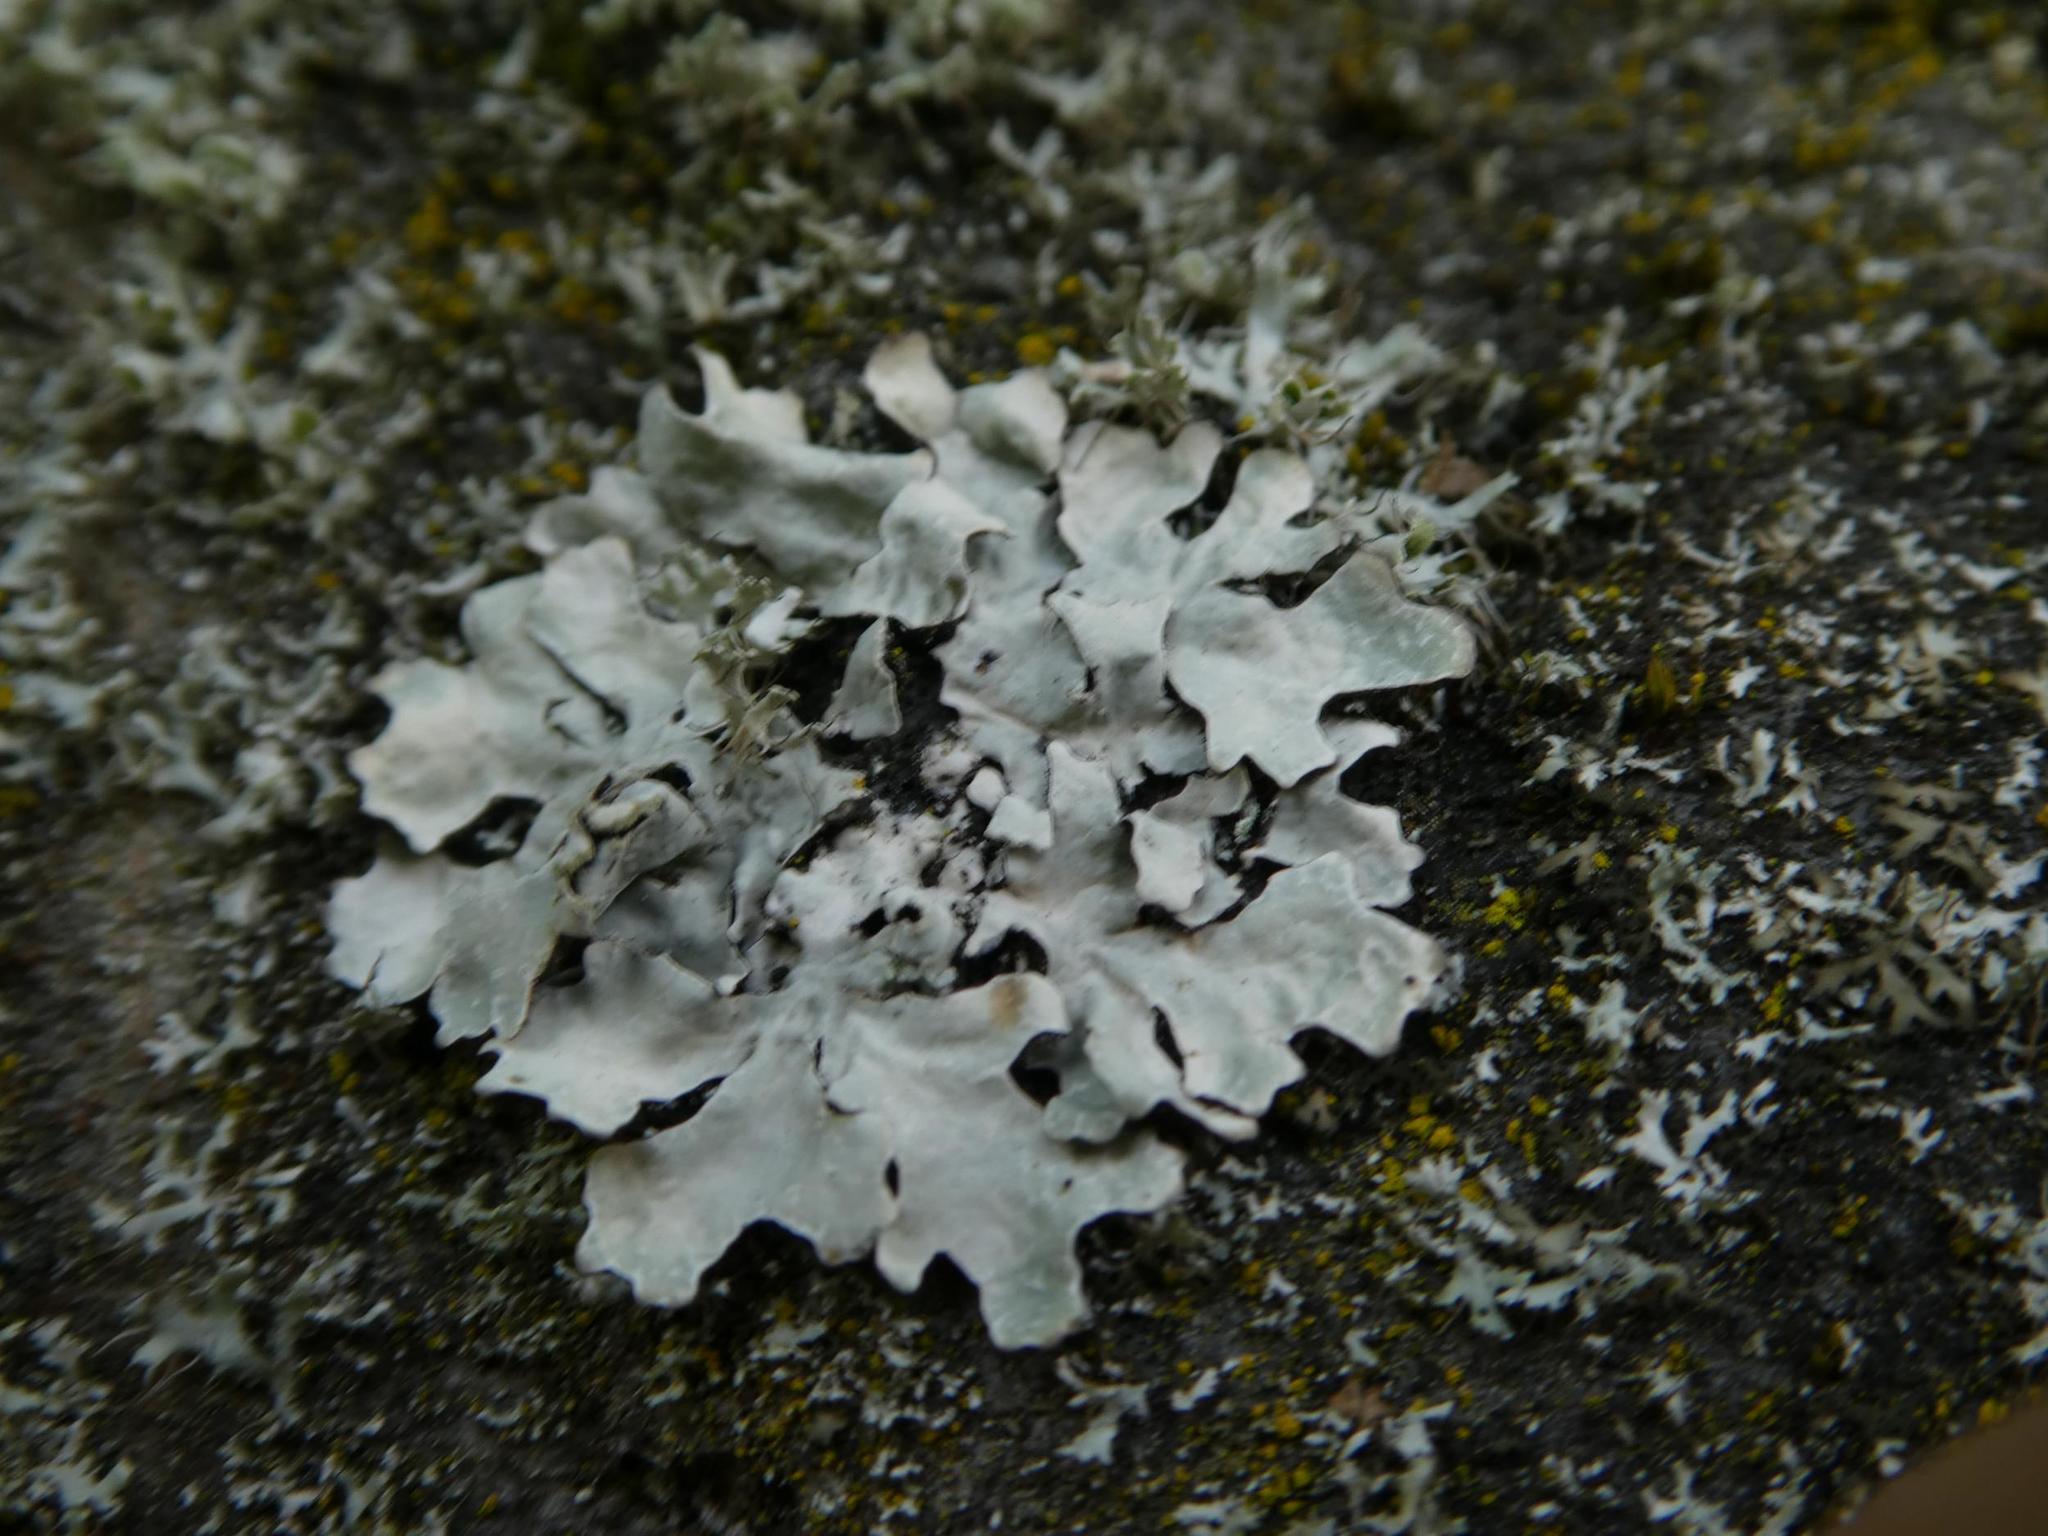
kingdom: Fungi
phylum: Ascomycota
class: Lecanoromycetes
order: Lecanorales
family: Parmeliaceae
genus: Parmelia
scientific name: Parmelia sulcata
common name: Netted shield lichen
